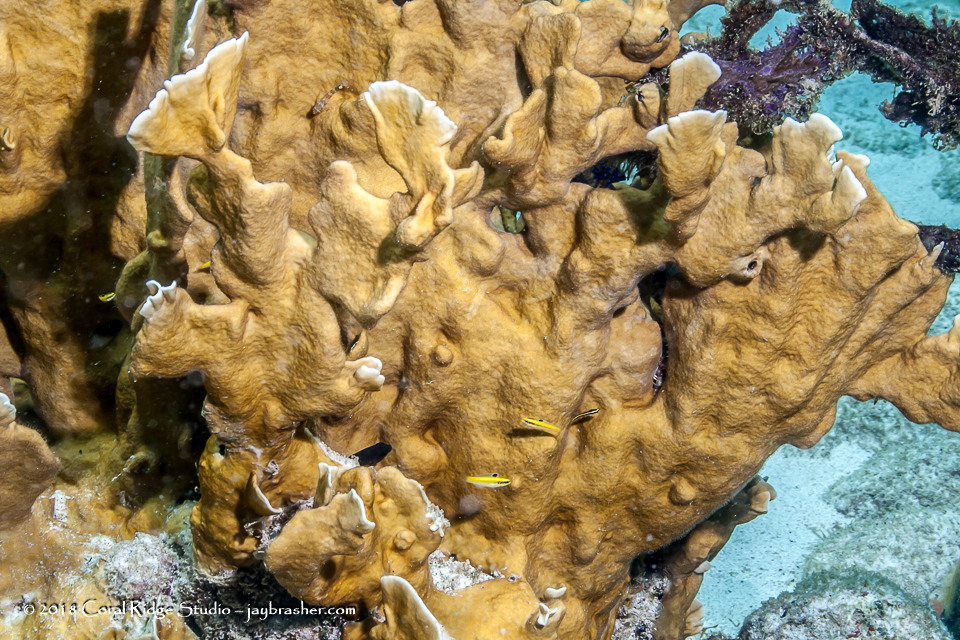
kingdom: Animalia
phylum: Cnidaria
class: Hydrozoa
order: Anthoathecata
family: Milleporidae
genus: Millepora
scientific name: Millepora complanata
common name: Bladed fire coral
